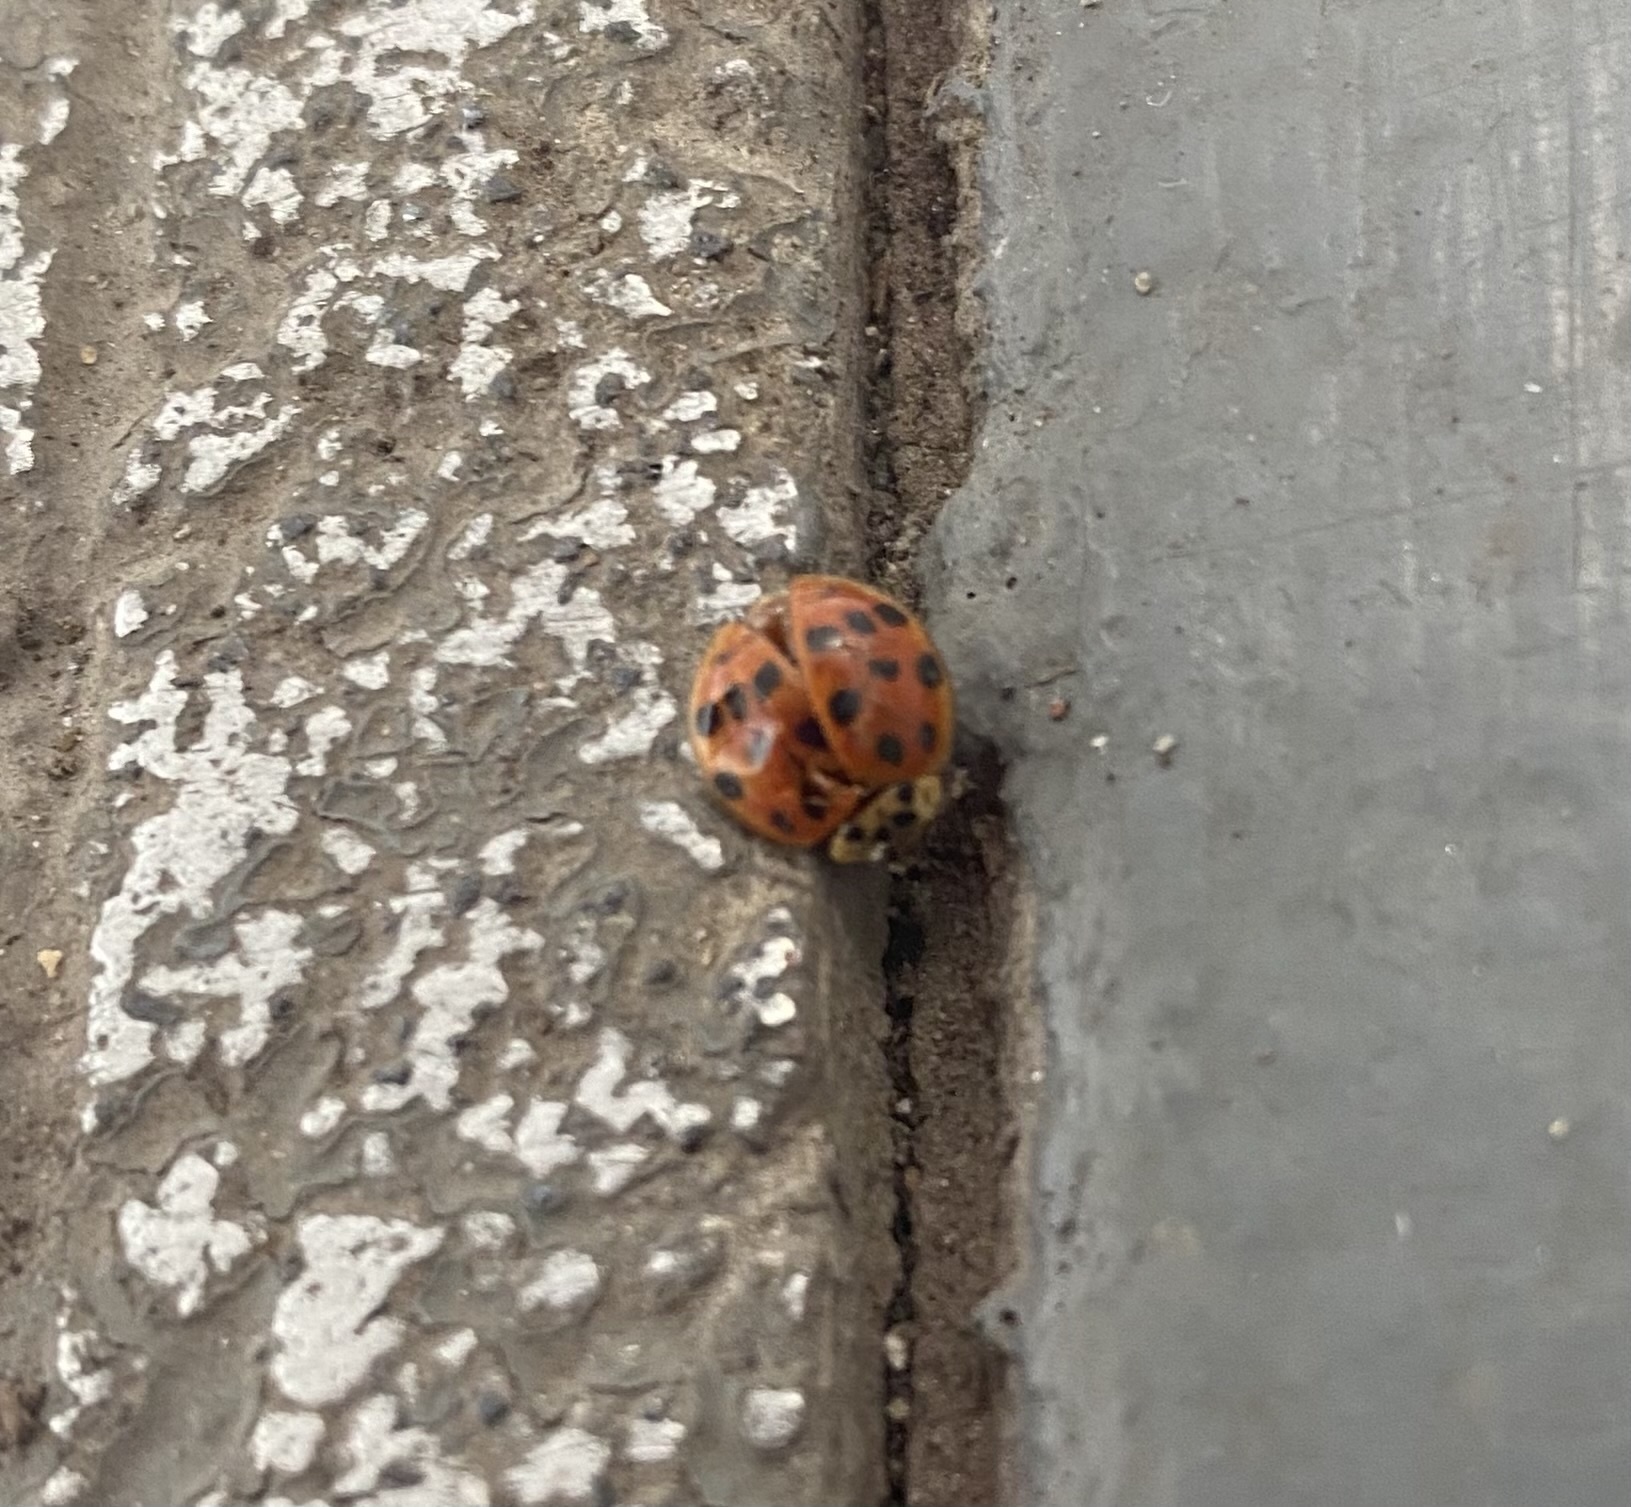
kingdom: Animalia
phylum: Arthropoda
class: Insecta
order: Coleoptera
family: Coccinellidae
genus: Harmonia
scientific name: Harmonia axyridis
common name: Harlequin ladybird
